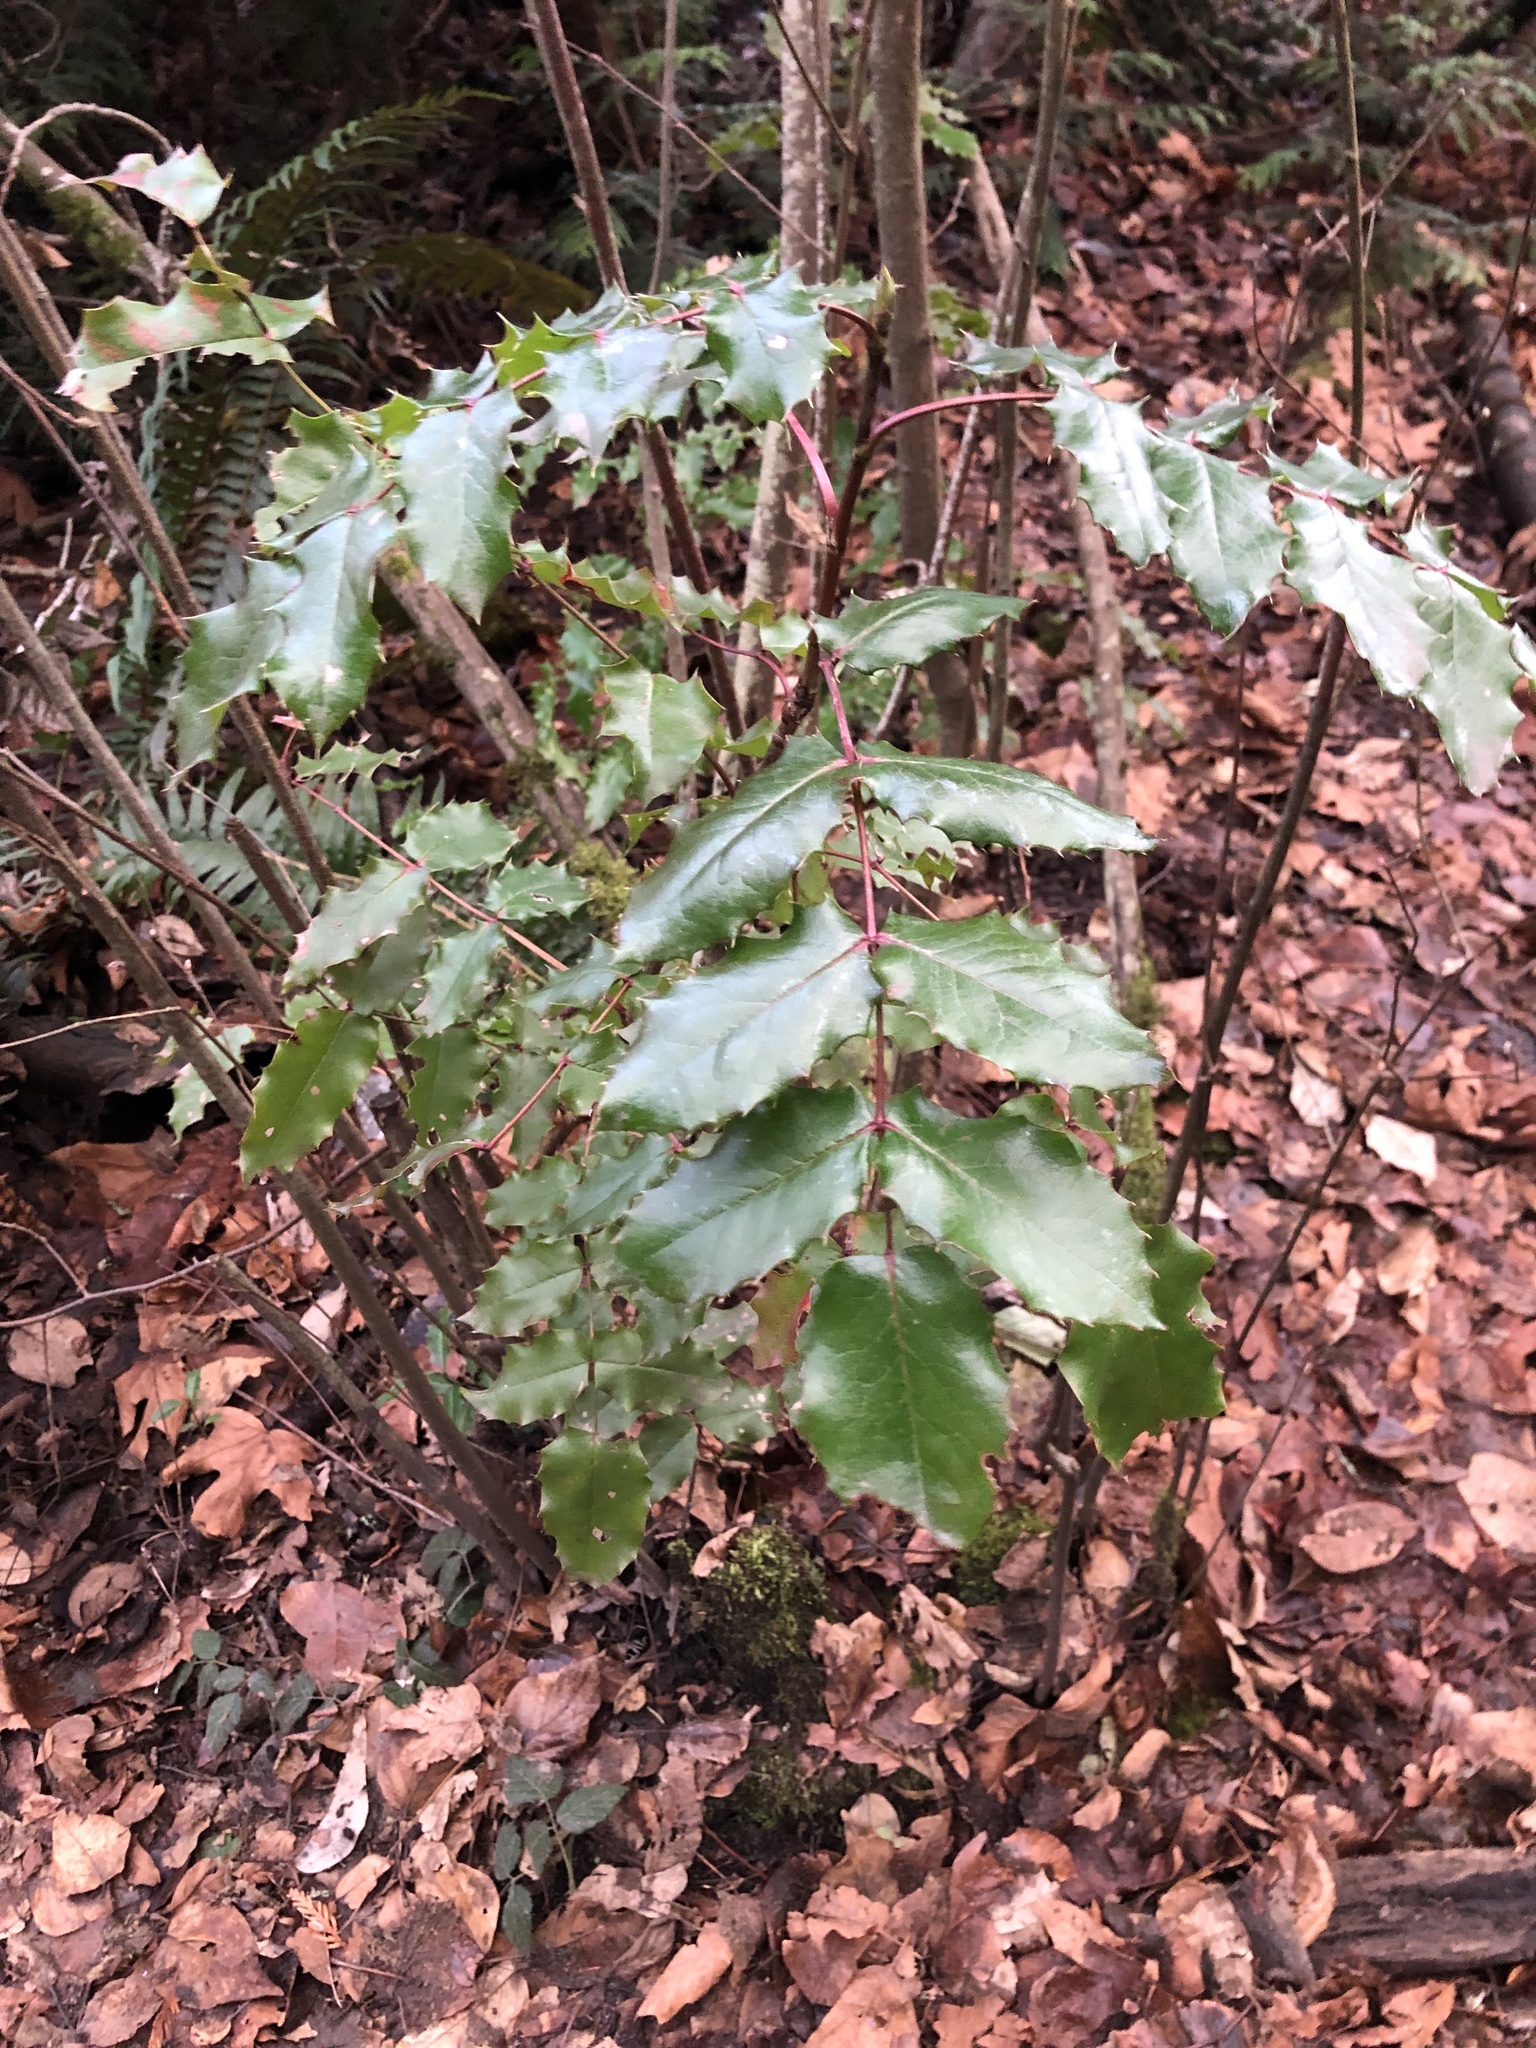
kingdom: Plantae
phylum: Tracheophyta
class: Magnoliopsida
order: Ranunculales
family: Berberidaceae
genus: Mahonia
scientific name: Mahonia aquifolium
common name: Oregon-grape
